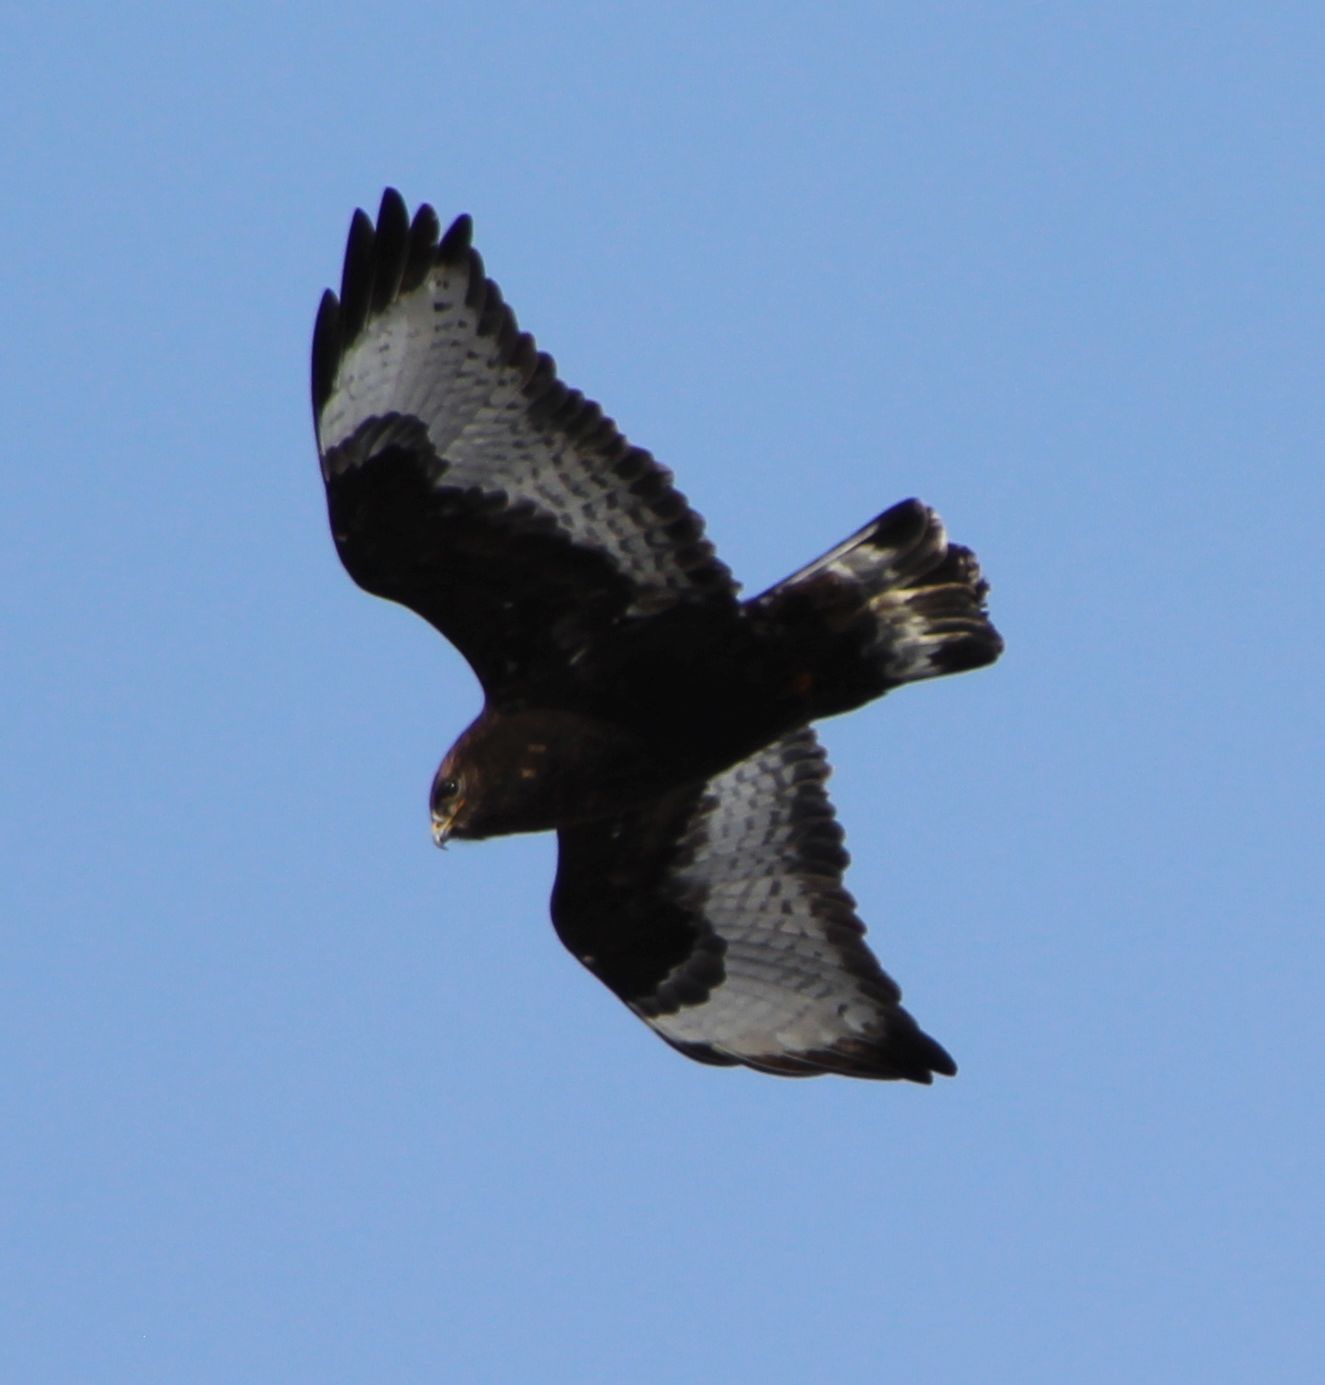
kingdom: Animalia
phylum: Chordata
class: Aves
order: Accipitriformes
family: Accipitridae
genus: Buteo
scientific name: Buteo lagopus
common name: Rough-legged buzzard
